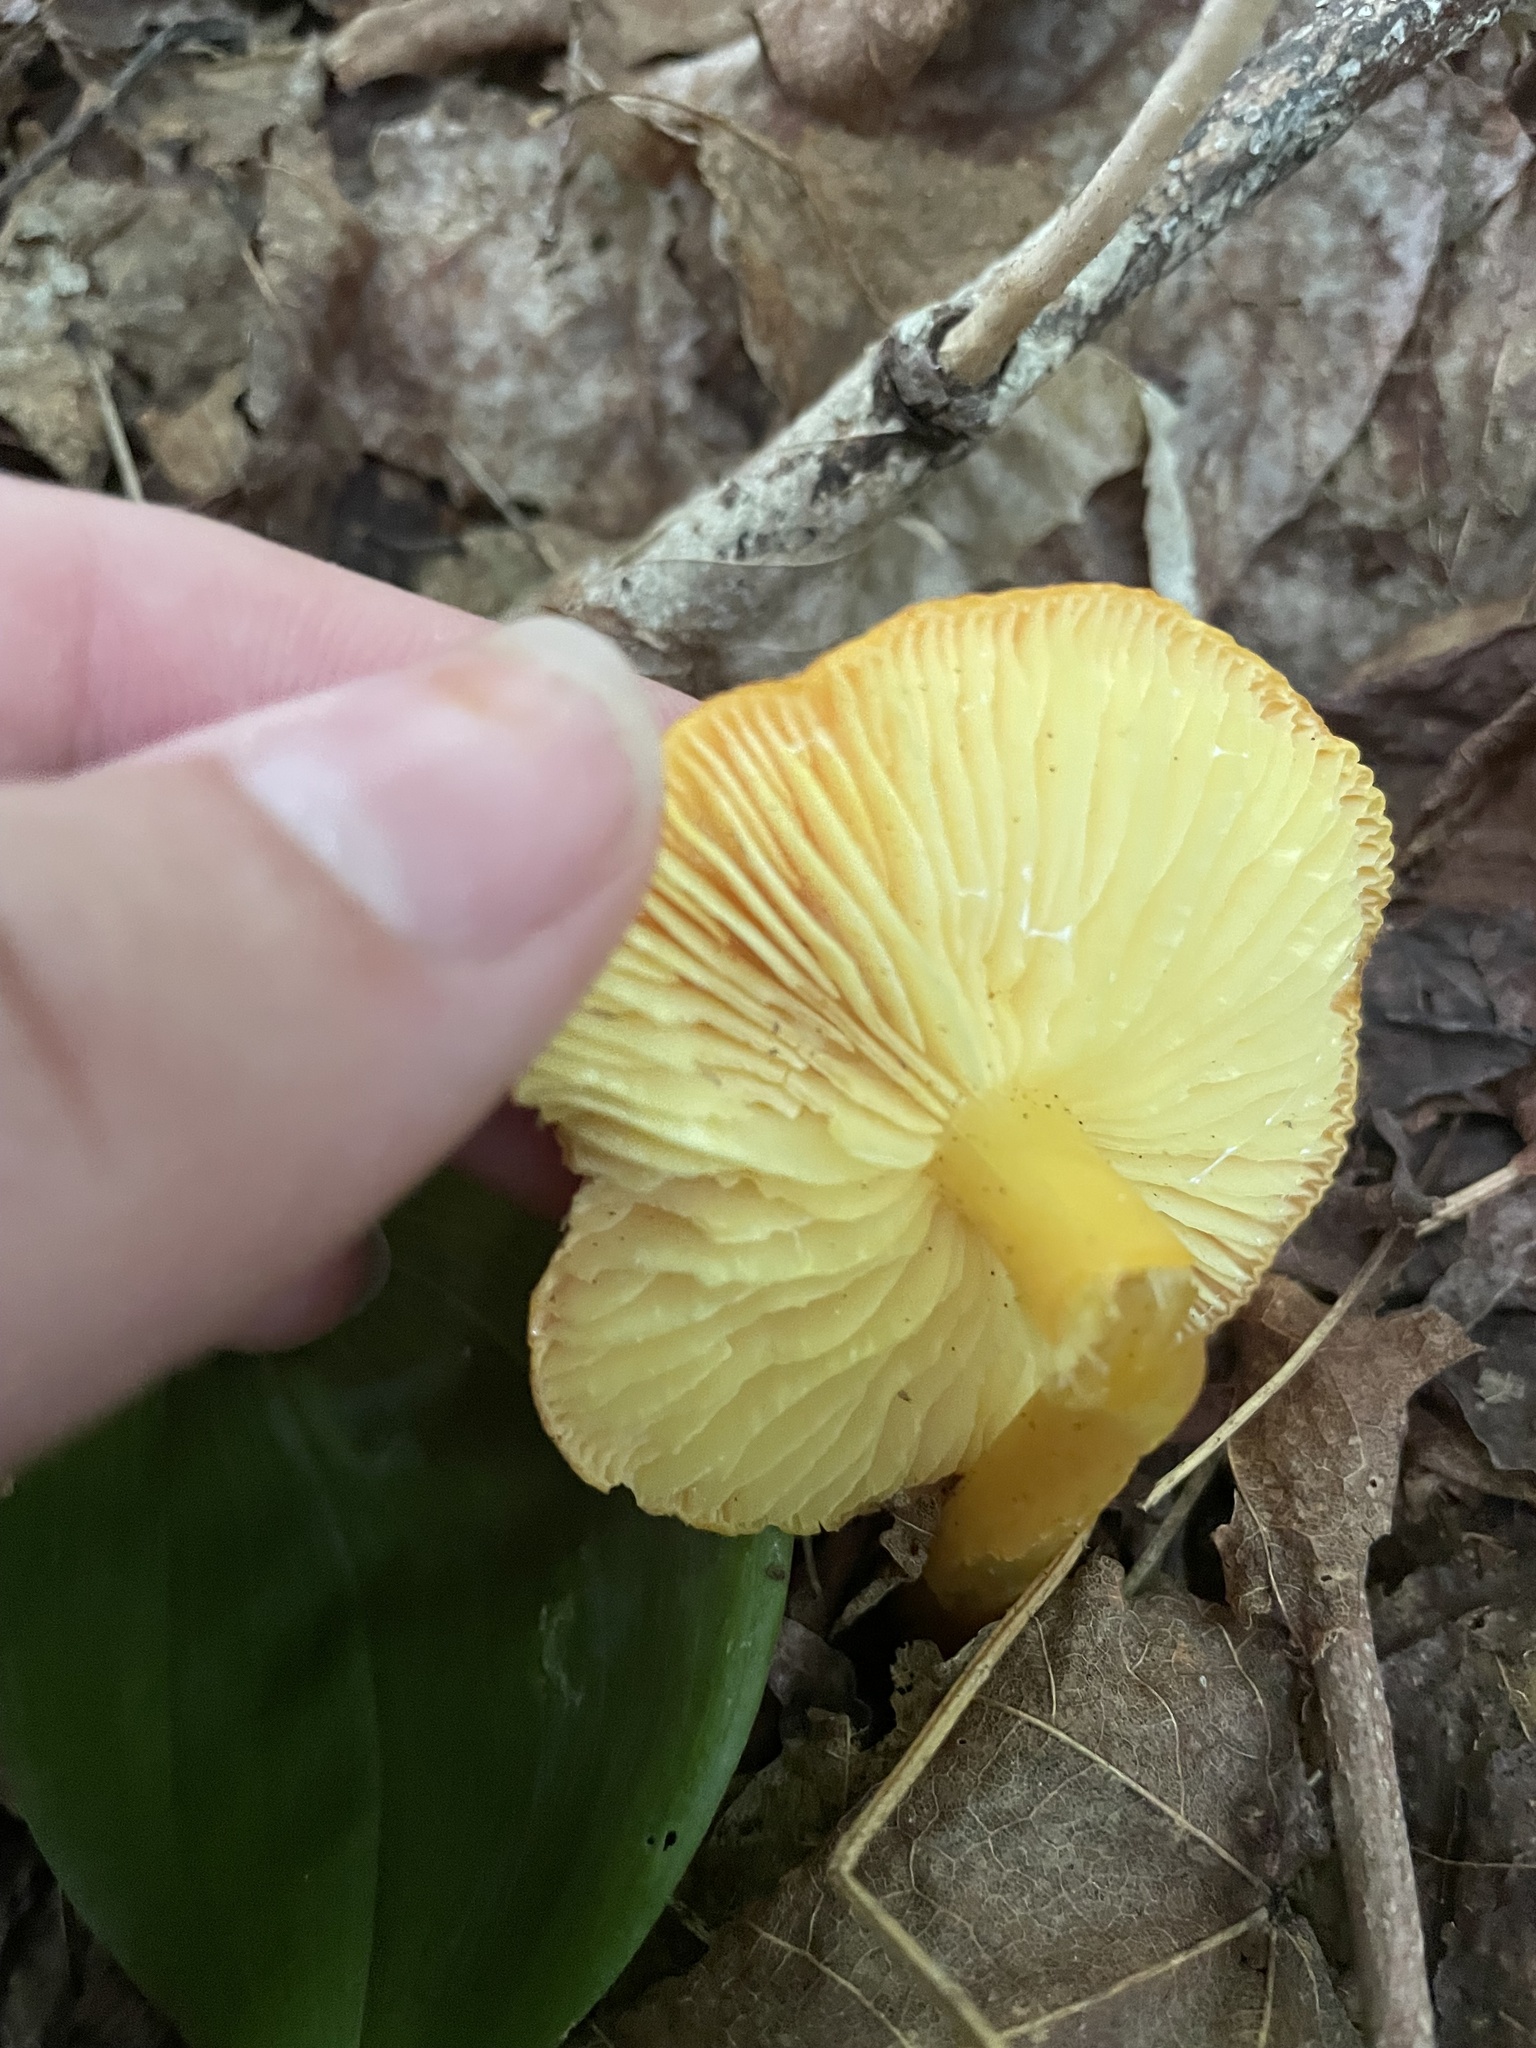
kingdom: Fungi
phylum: Basidiomycota
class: Agaricomycetes
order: Agaricales
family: Amanitaceae
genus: Amanita
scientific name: Amanita flavoconia
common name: Yellow patches
